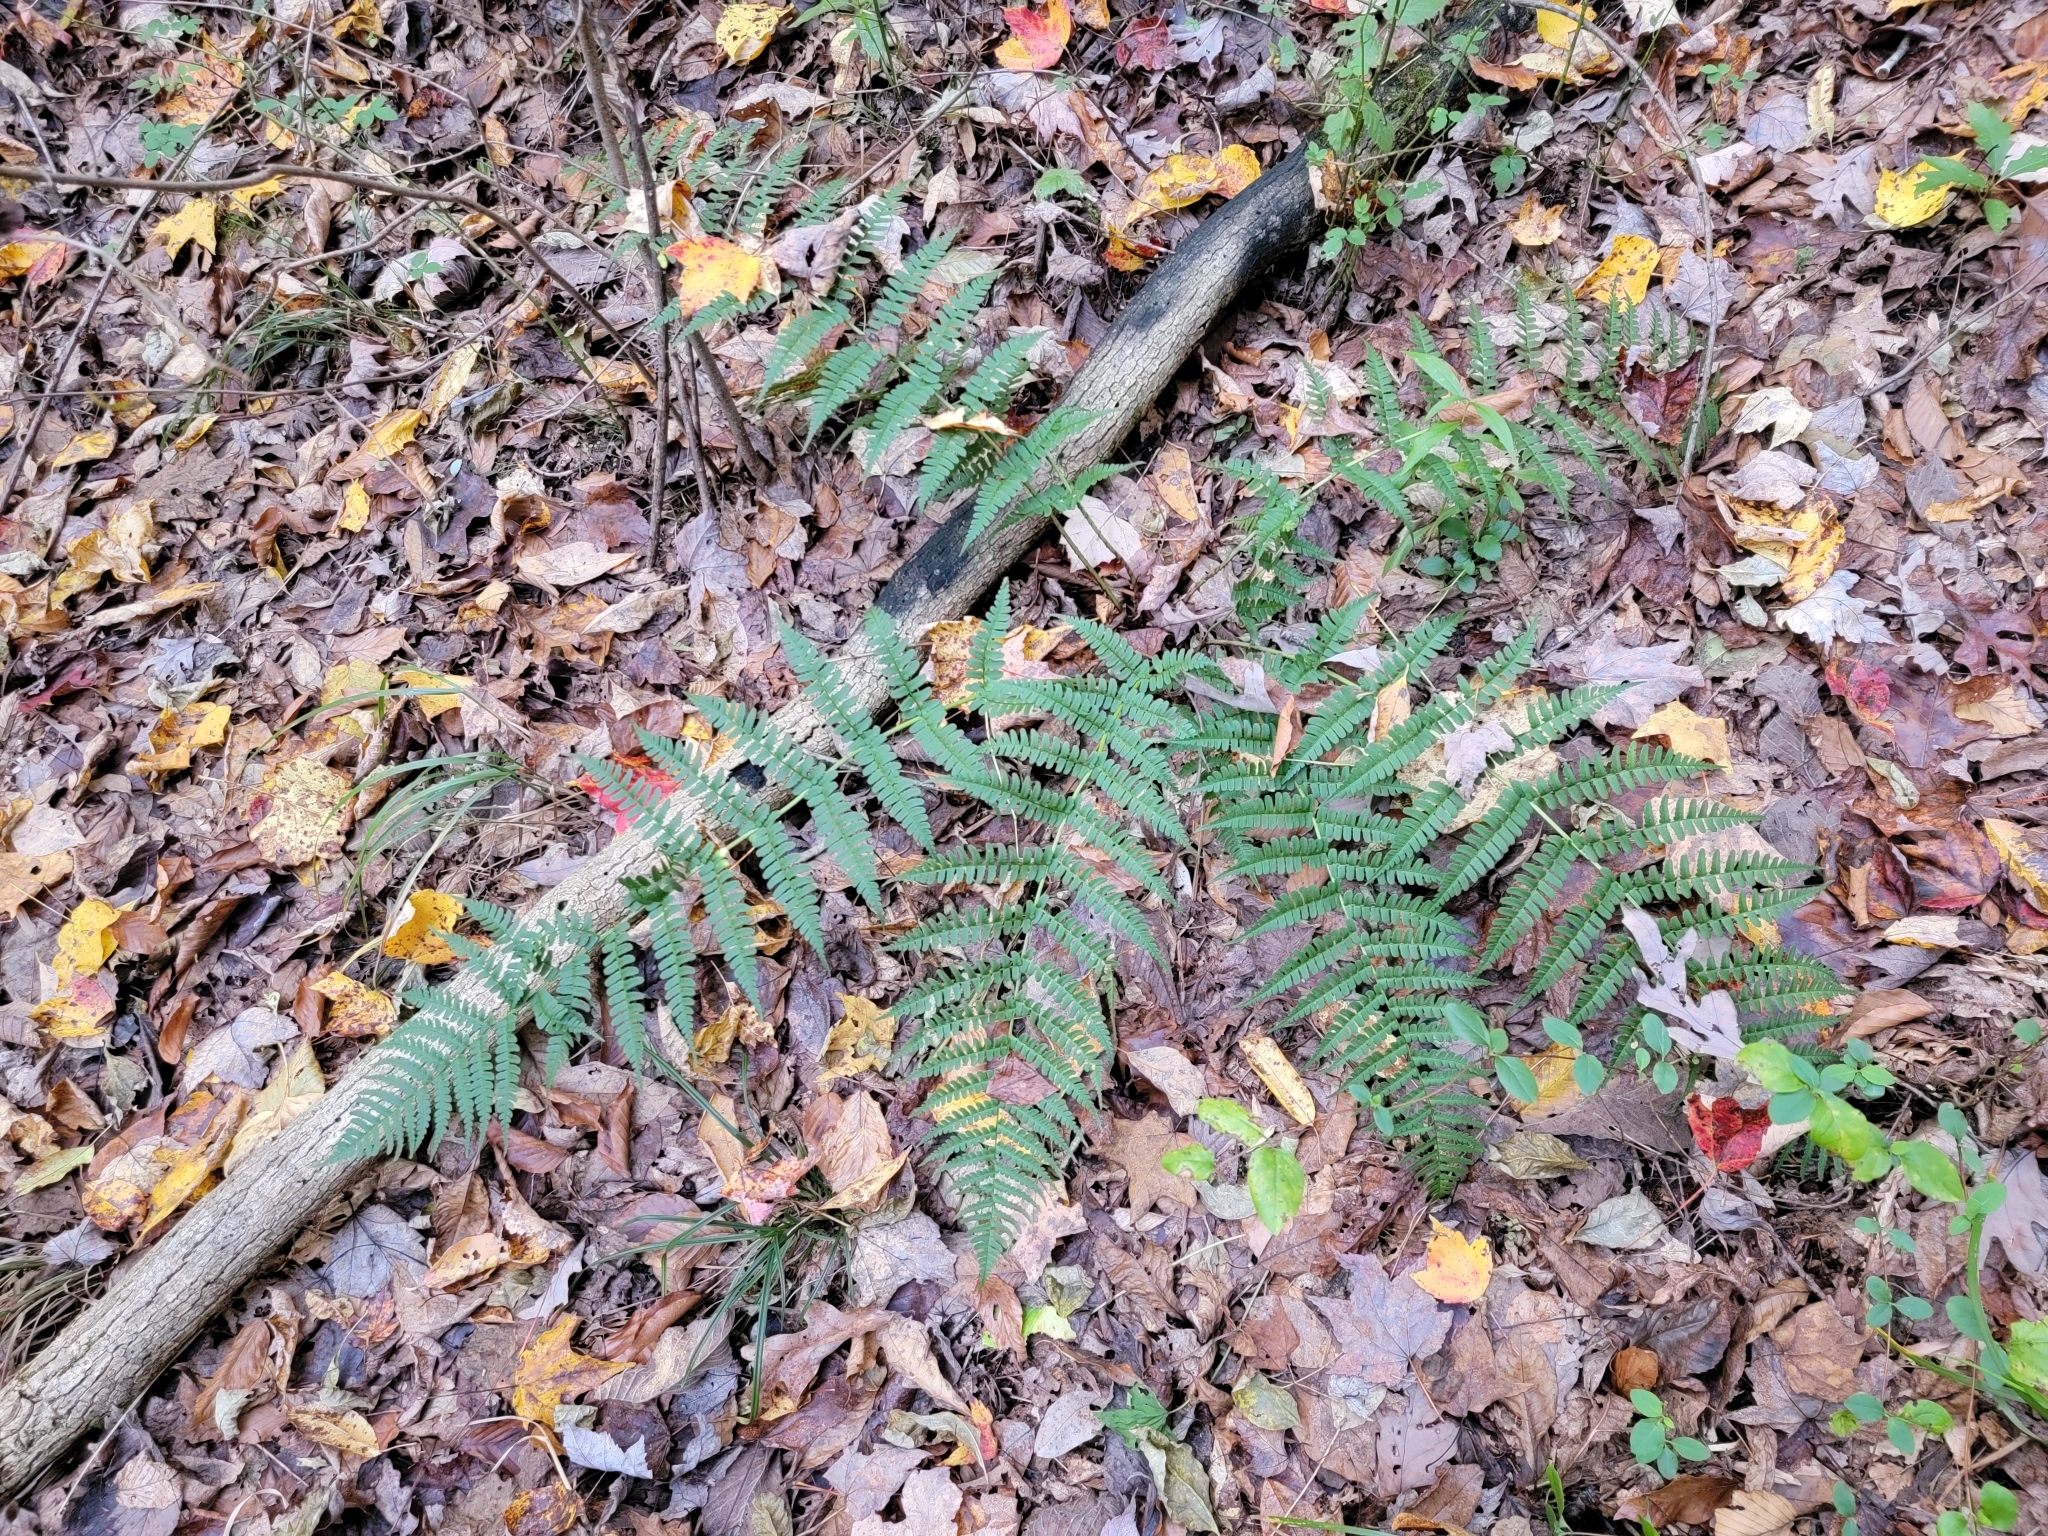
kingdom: Plantae
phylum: Tracheophyta
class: Polypodiopsida
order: Polypodiales
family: Dryopteridaceae
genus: Dryopteris
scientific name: Dryopteris marginalis
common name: Marginal wood fern
